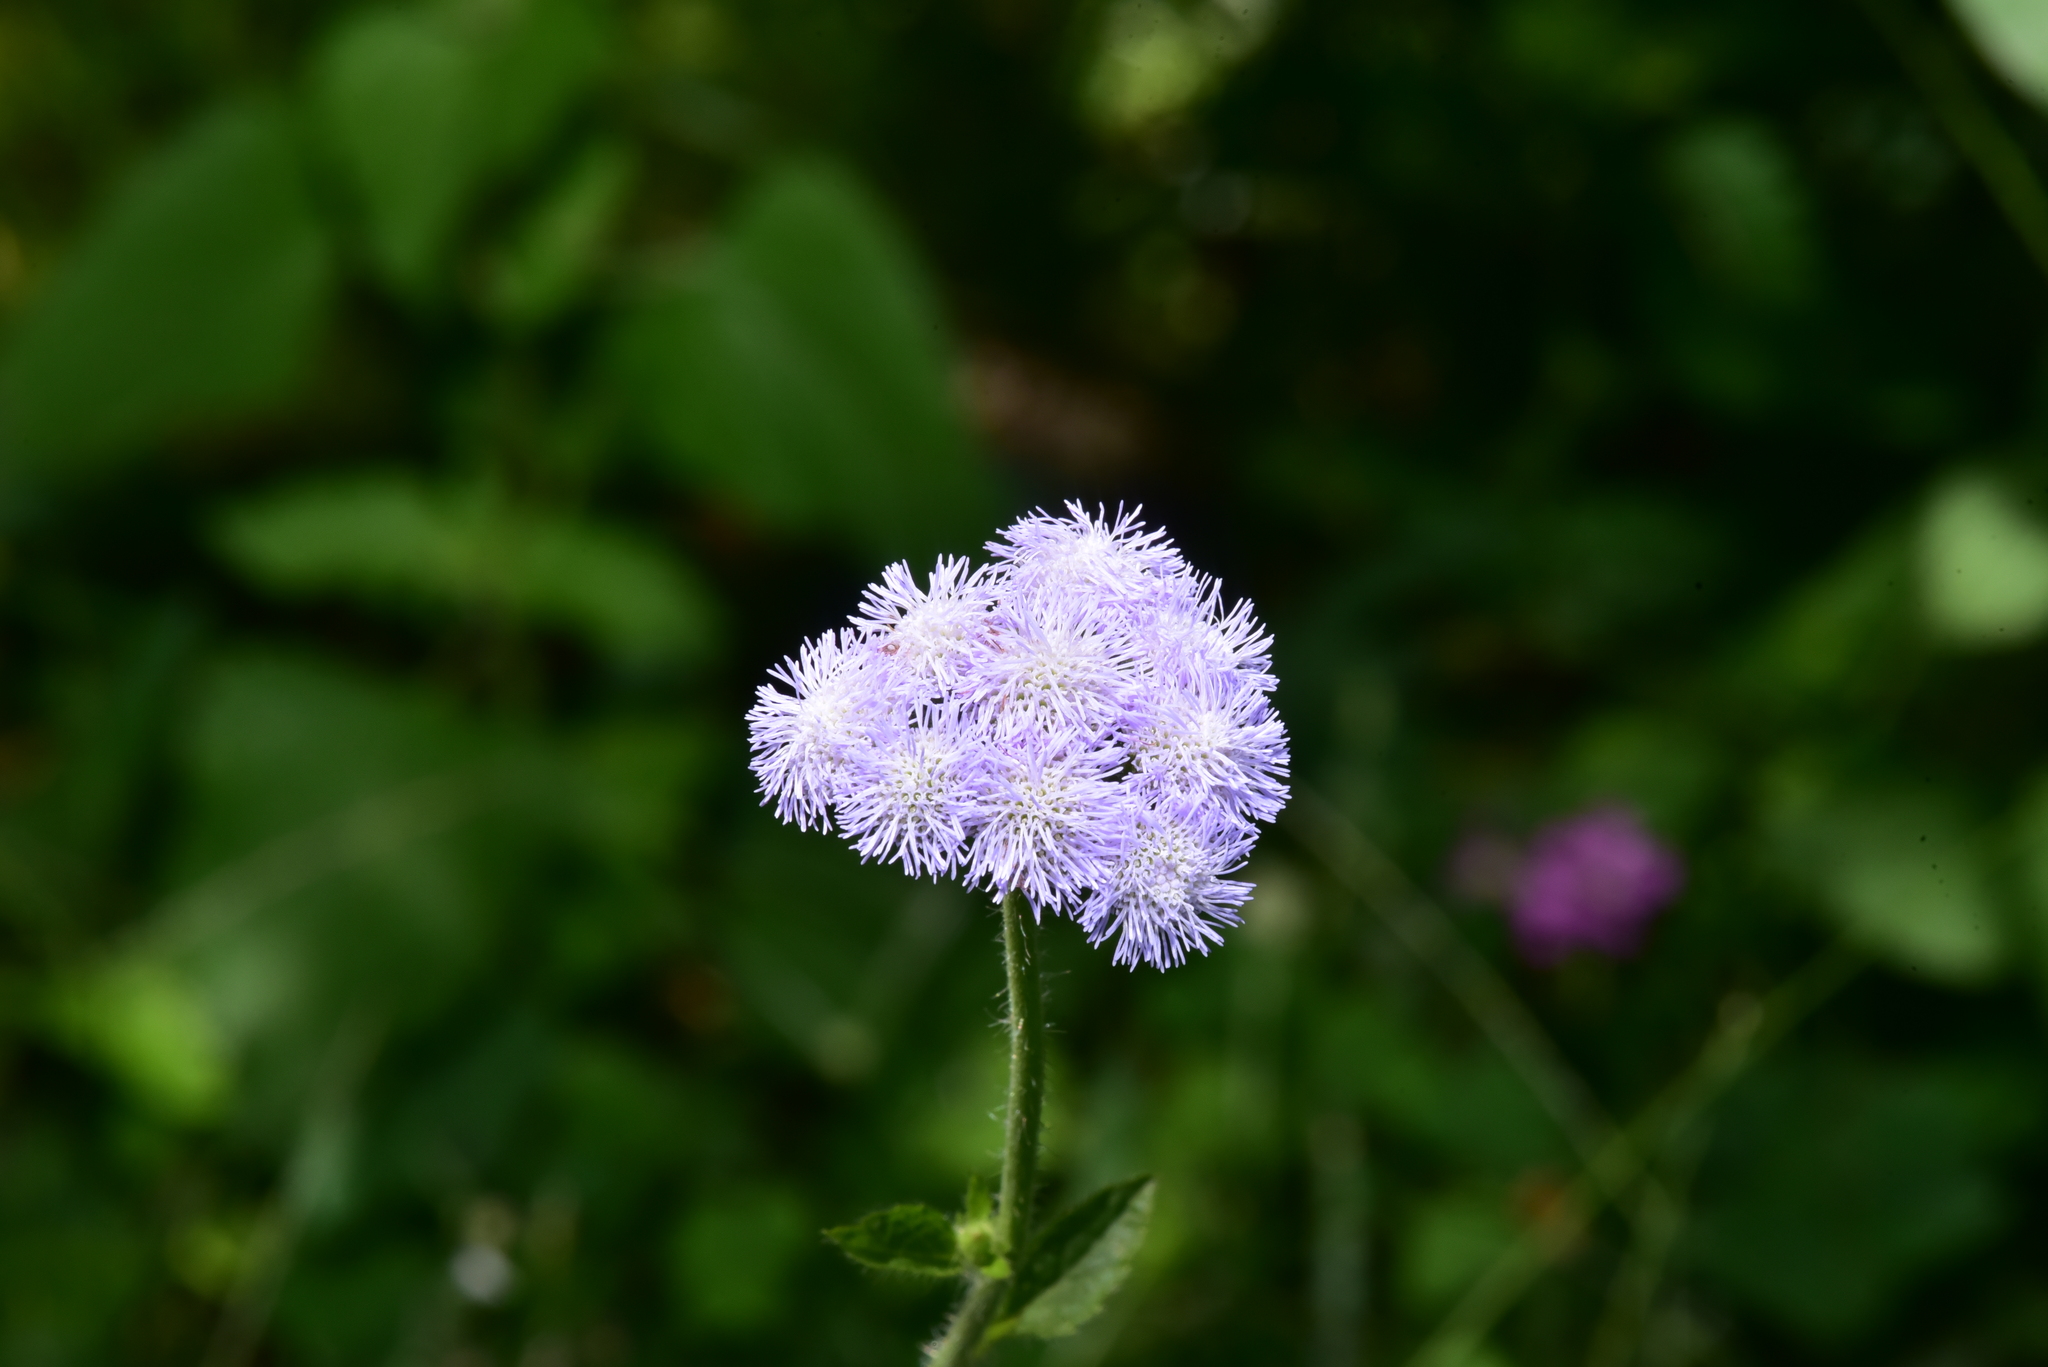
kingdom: Plantae
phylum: Tracheophyta
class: Magnoliopsida
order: Asterales
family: Asteraceae
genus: Ageratum
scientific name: Ageratum houstonianum
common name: Bluemink
